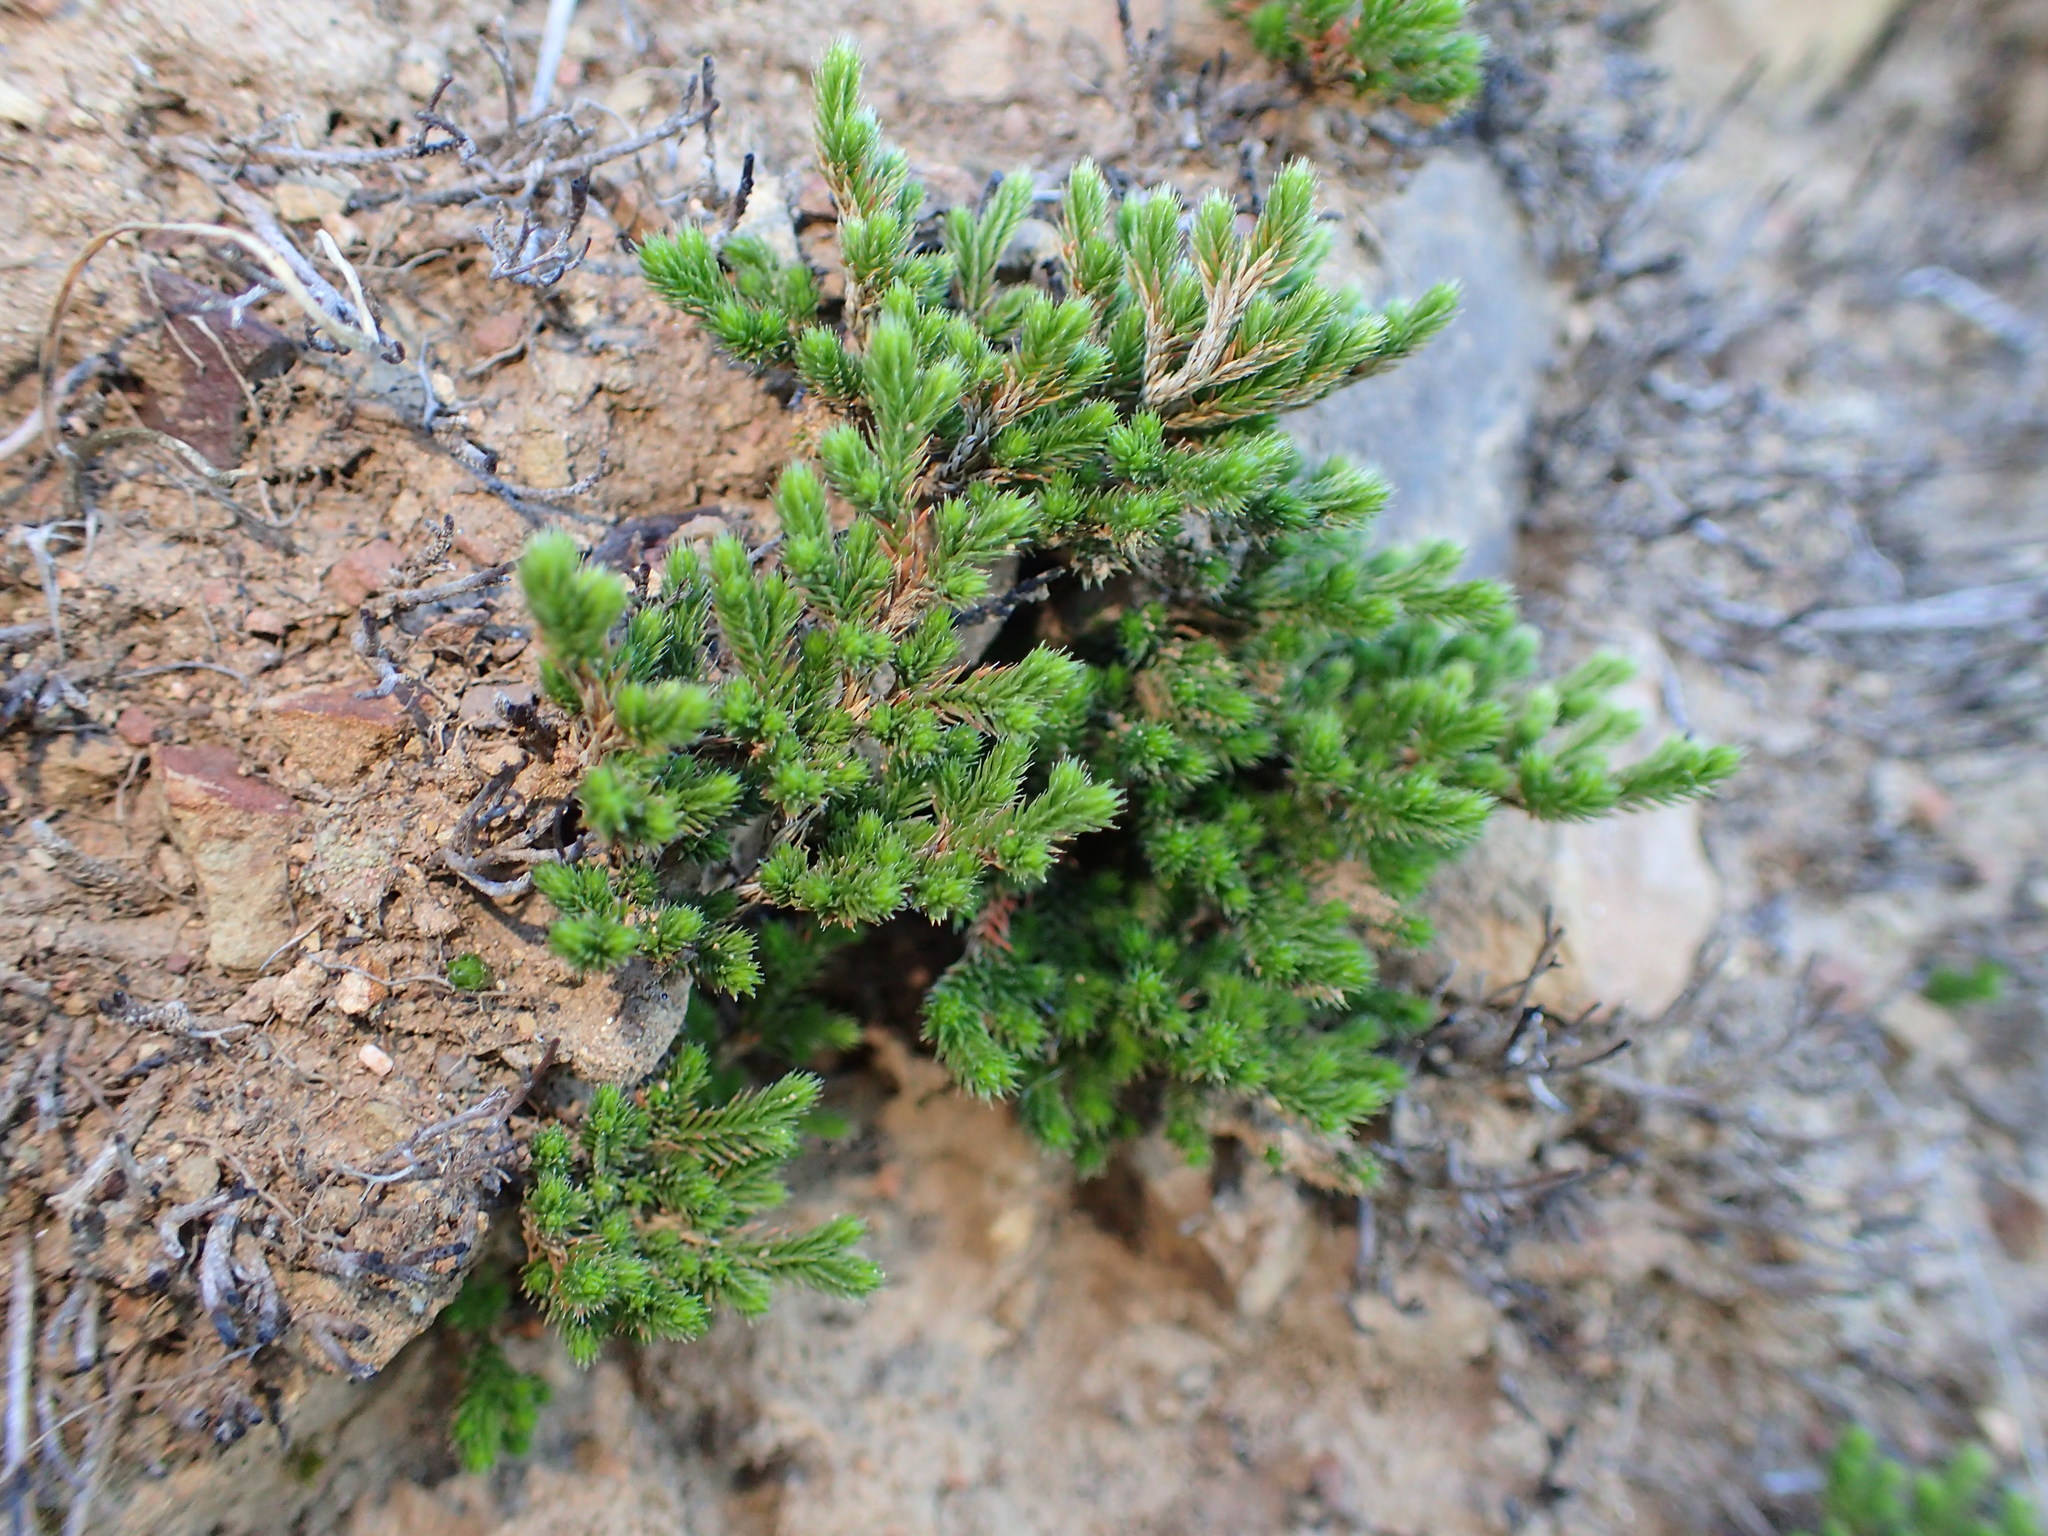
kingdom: Plantae
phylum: Tracheophyta
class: Lycopodiopsida
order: Selaginellales
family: Selaginellaceae
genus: Selaginella
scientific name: Selaginella bigelovii
